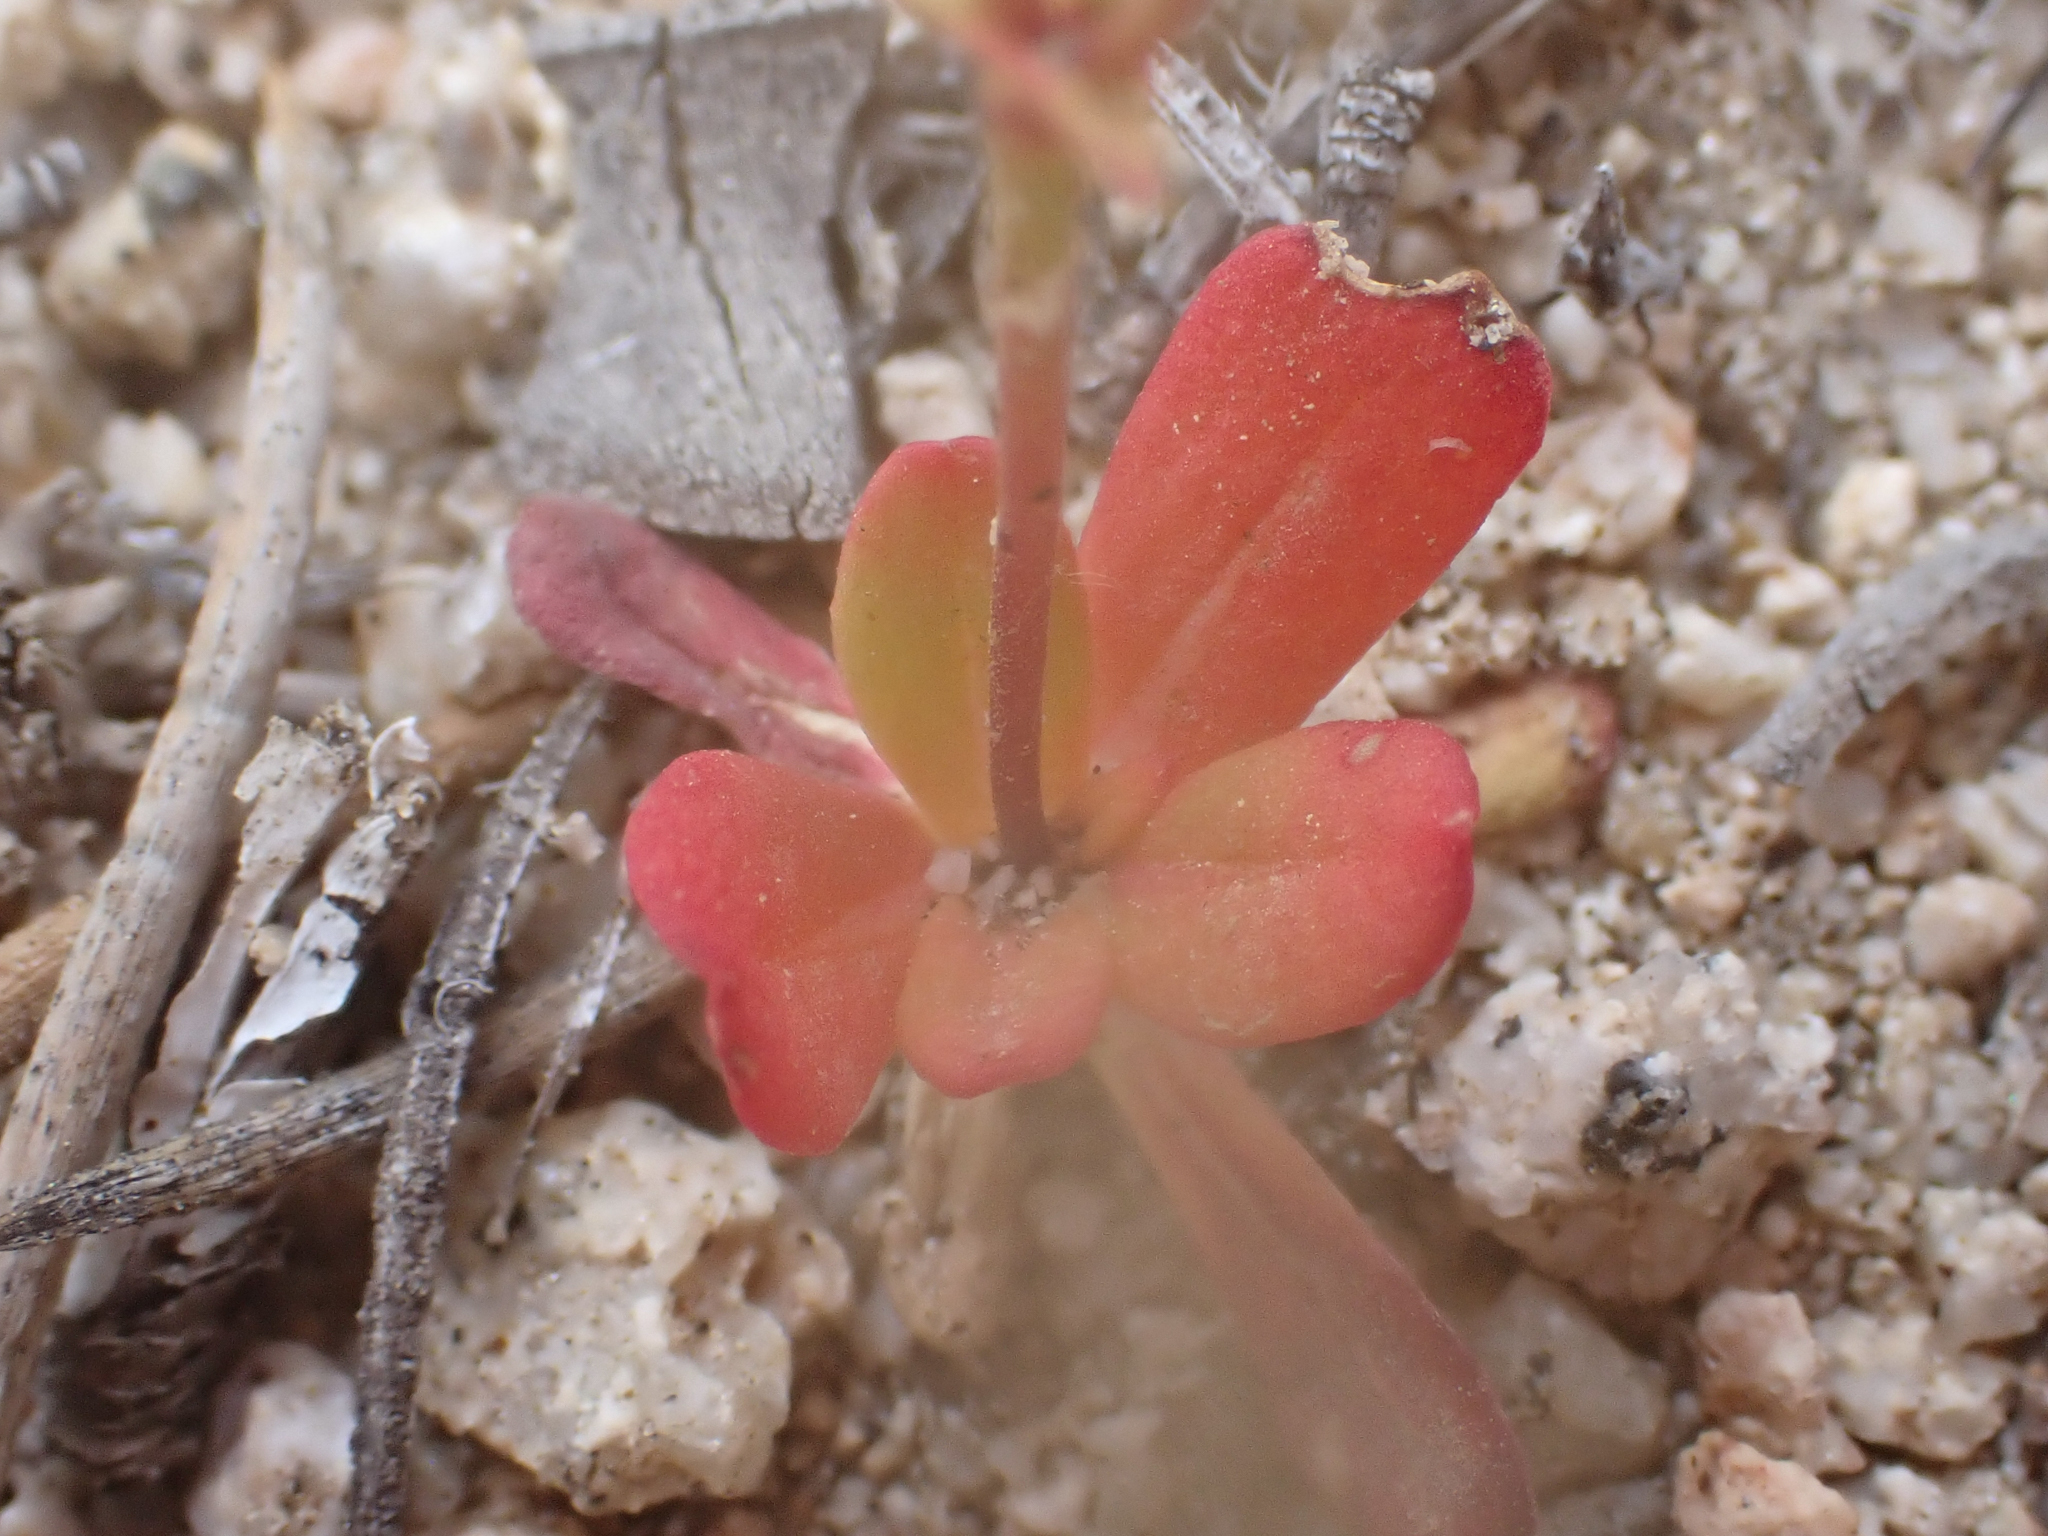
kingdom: Plantae
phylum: Tracheophyta
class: Magnoliopsida
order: Caryophyllales
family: Polygonaceae
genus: Centrostegia
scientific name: Centrostegia thurberi
